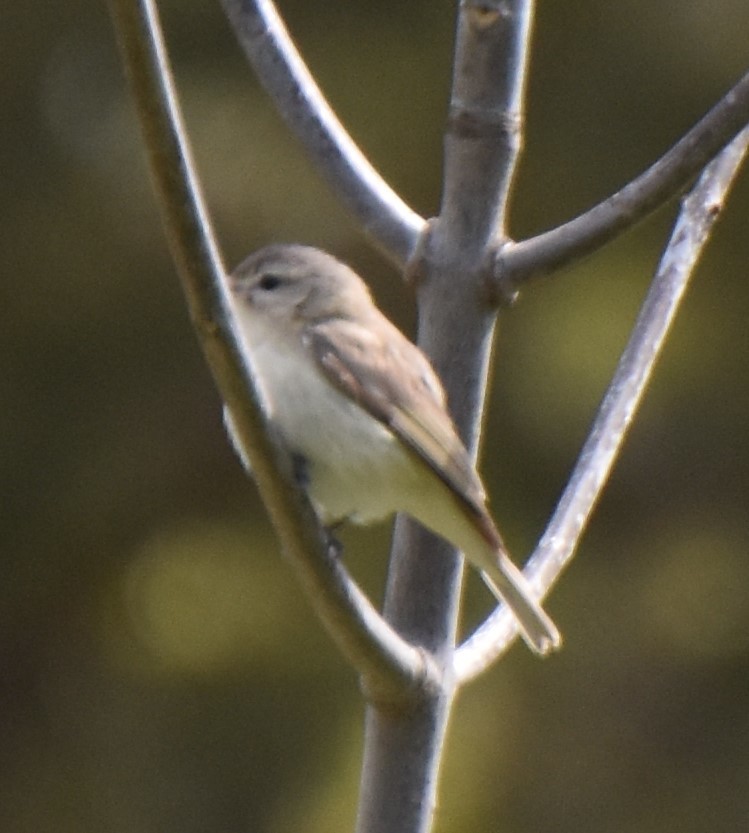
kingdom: Animalia
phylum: Chordata
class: Aves
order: Passeriformes
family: Vireonidae
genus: Vireo
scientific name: Vireo gilvus
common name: Warbling vireo
